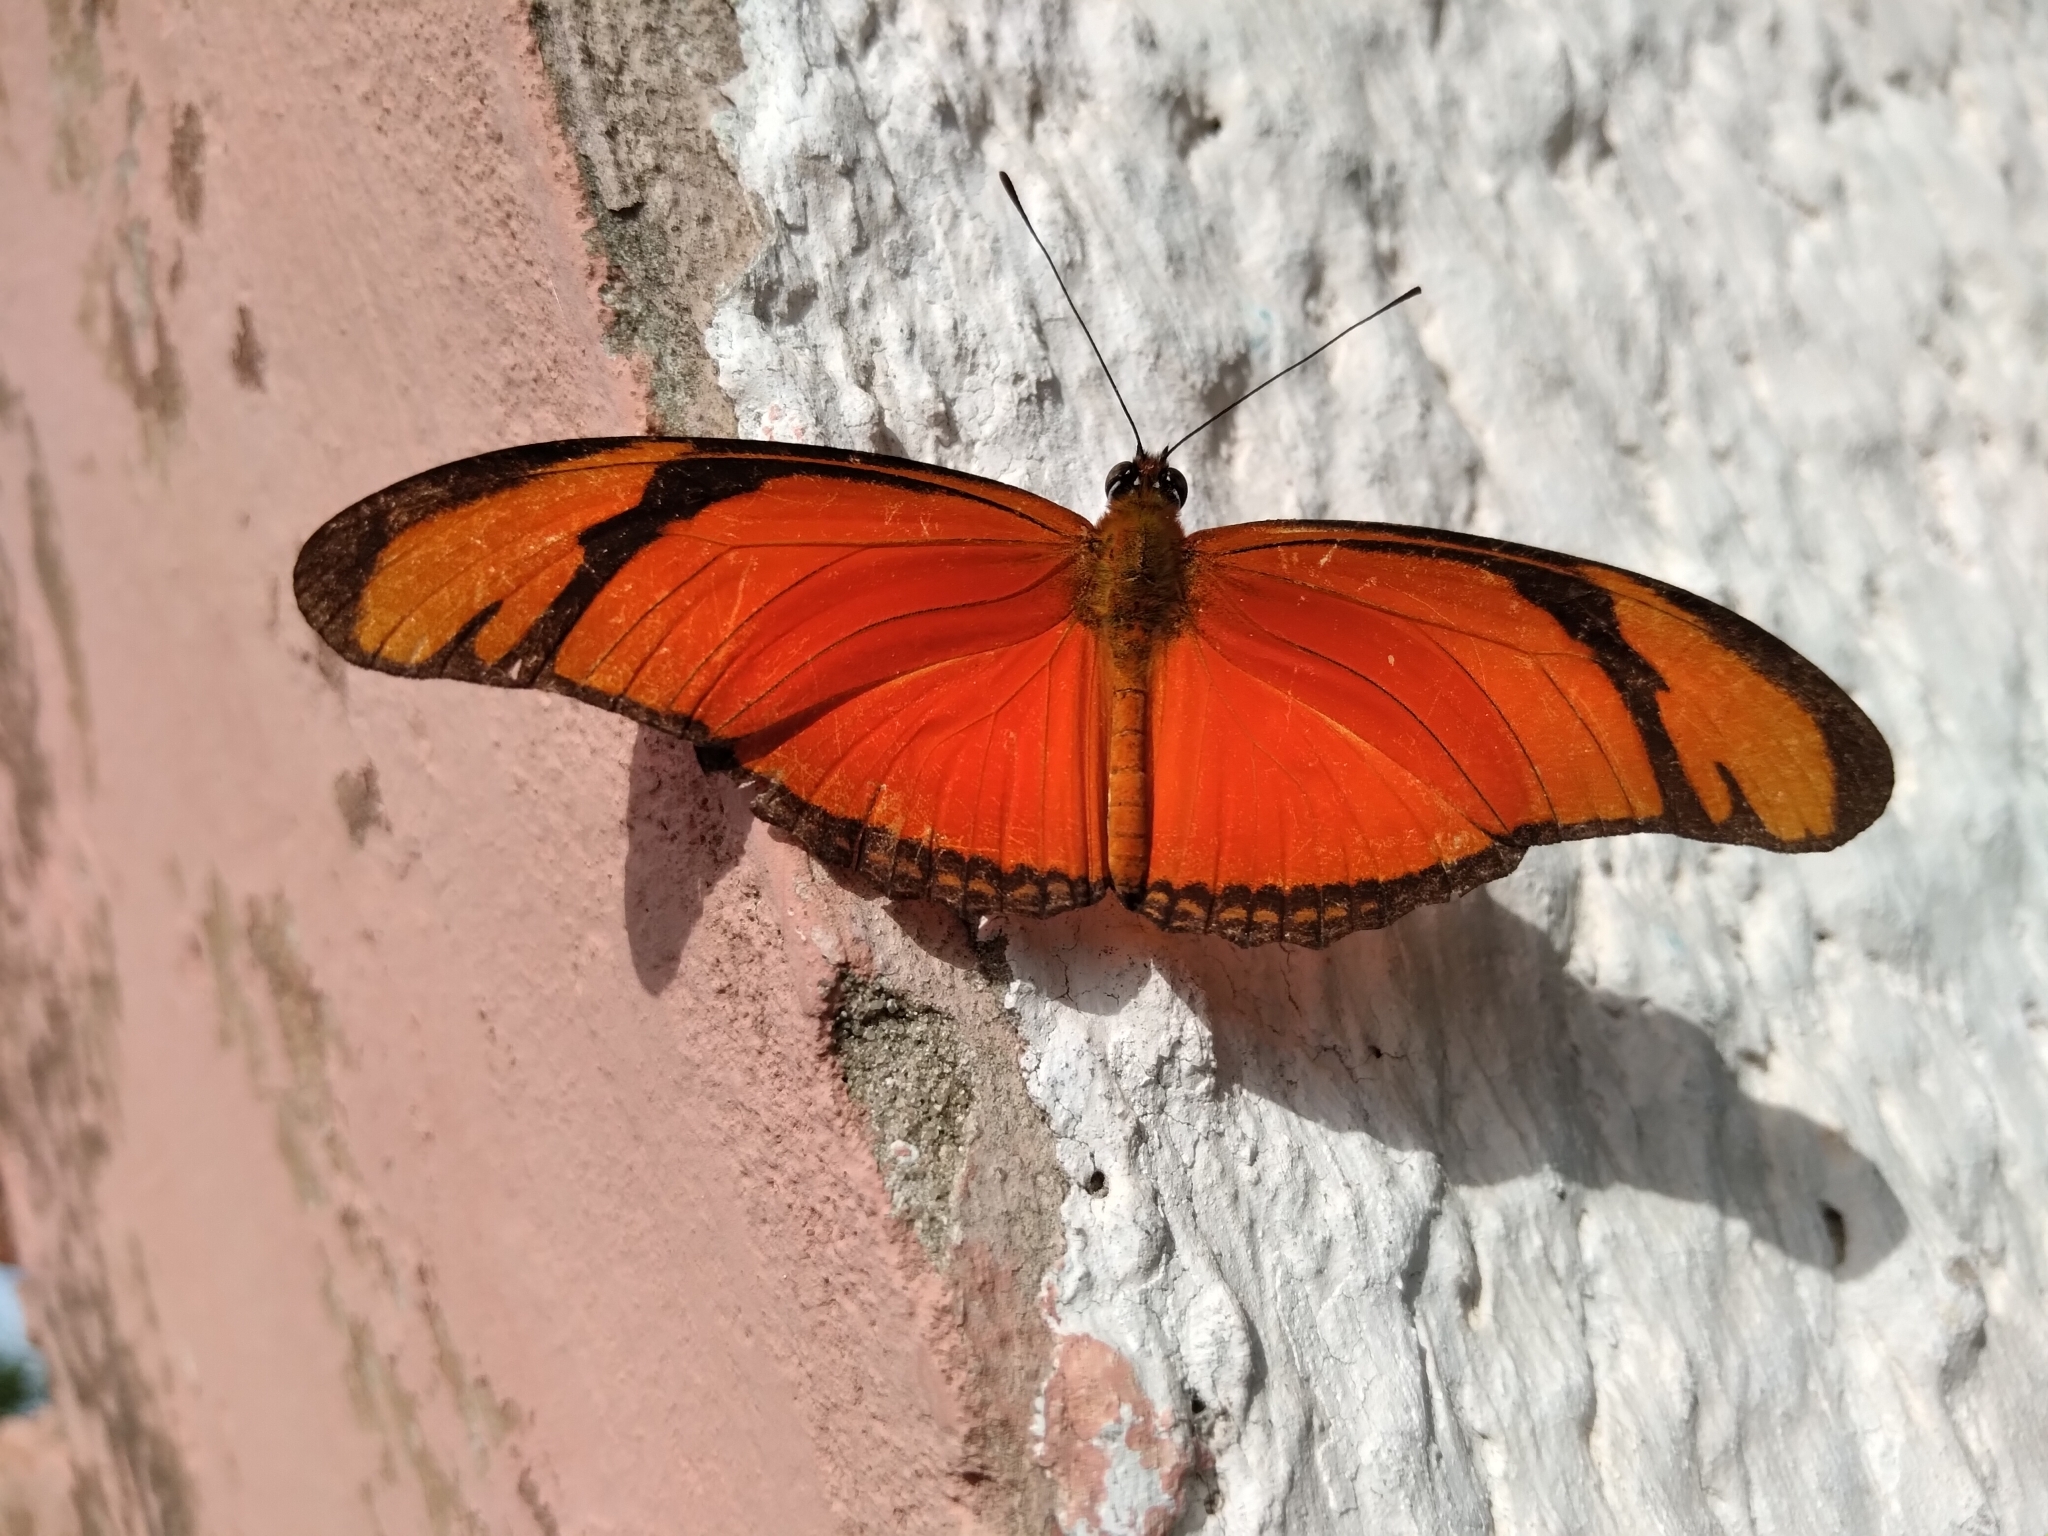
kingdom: Animalia
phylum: Arthropoda
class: Insecta
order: Lepidoptera
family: Nymphalidae
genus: Dryas
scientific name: Dryas iulia
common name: Flambeau
